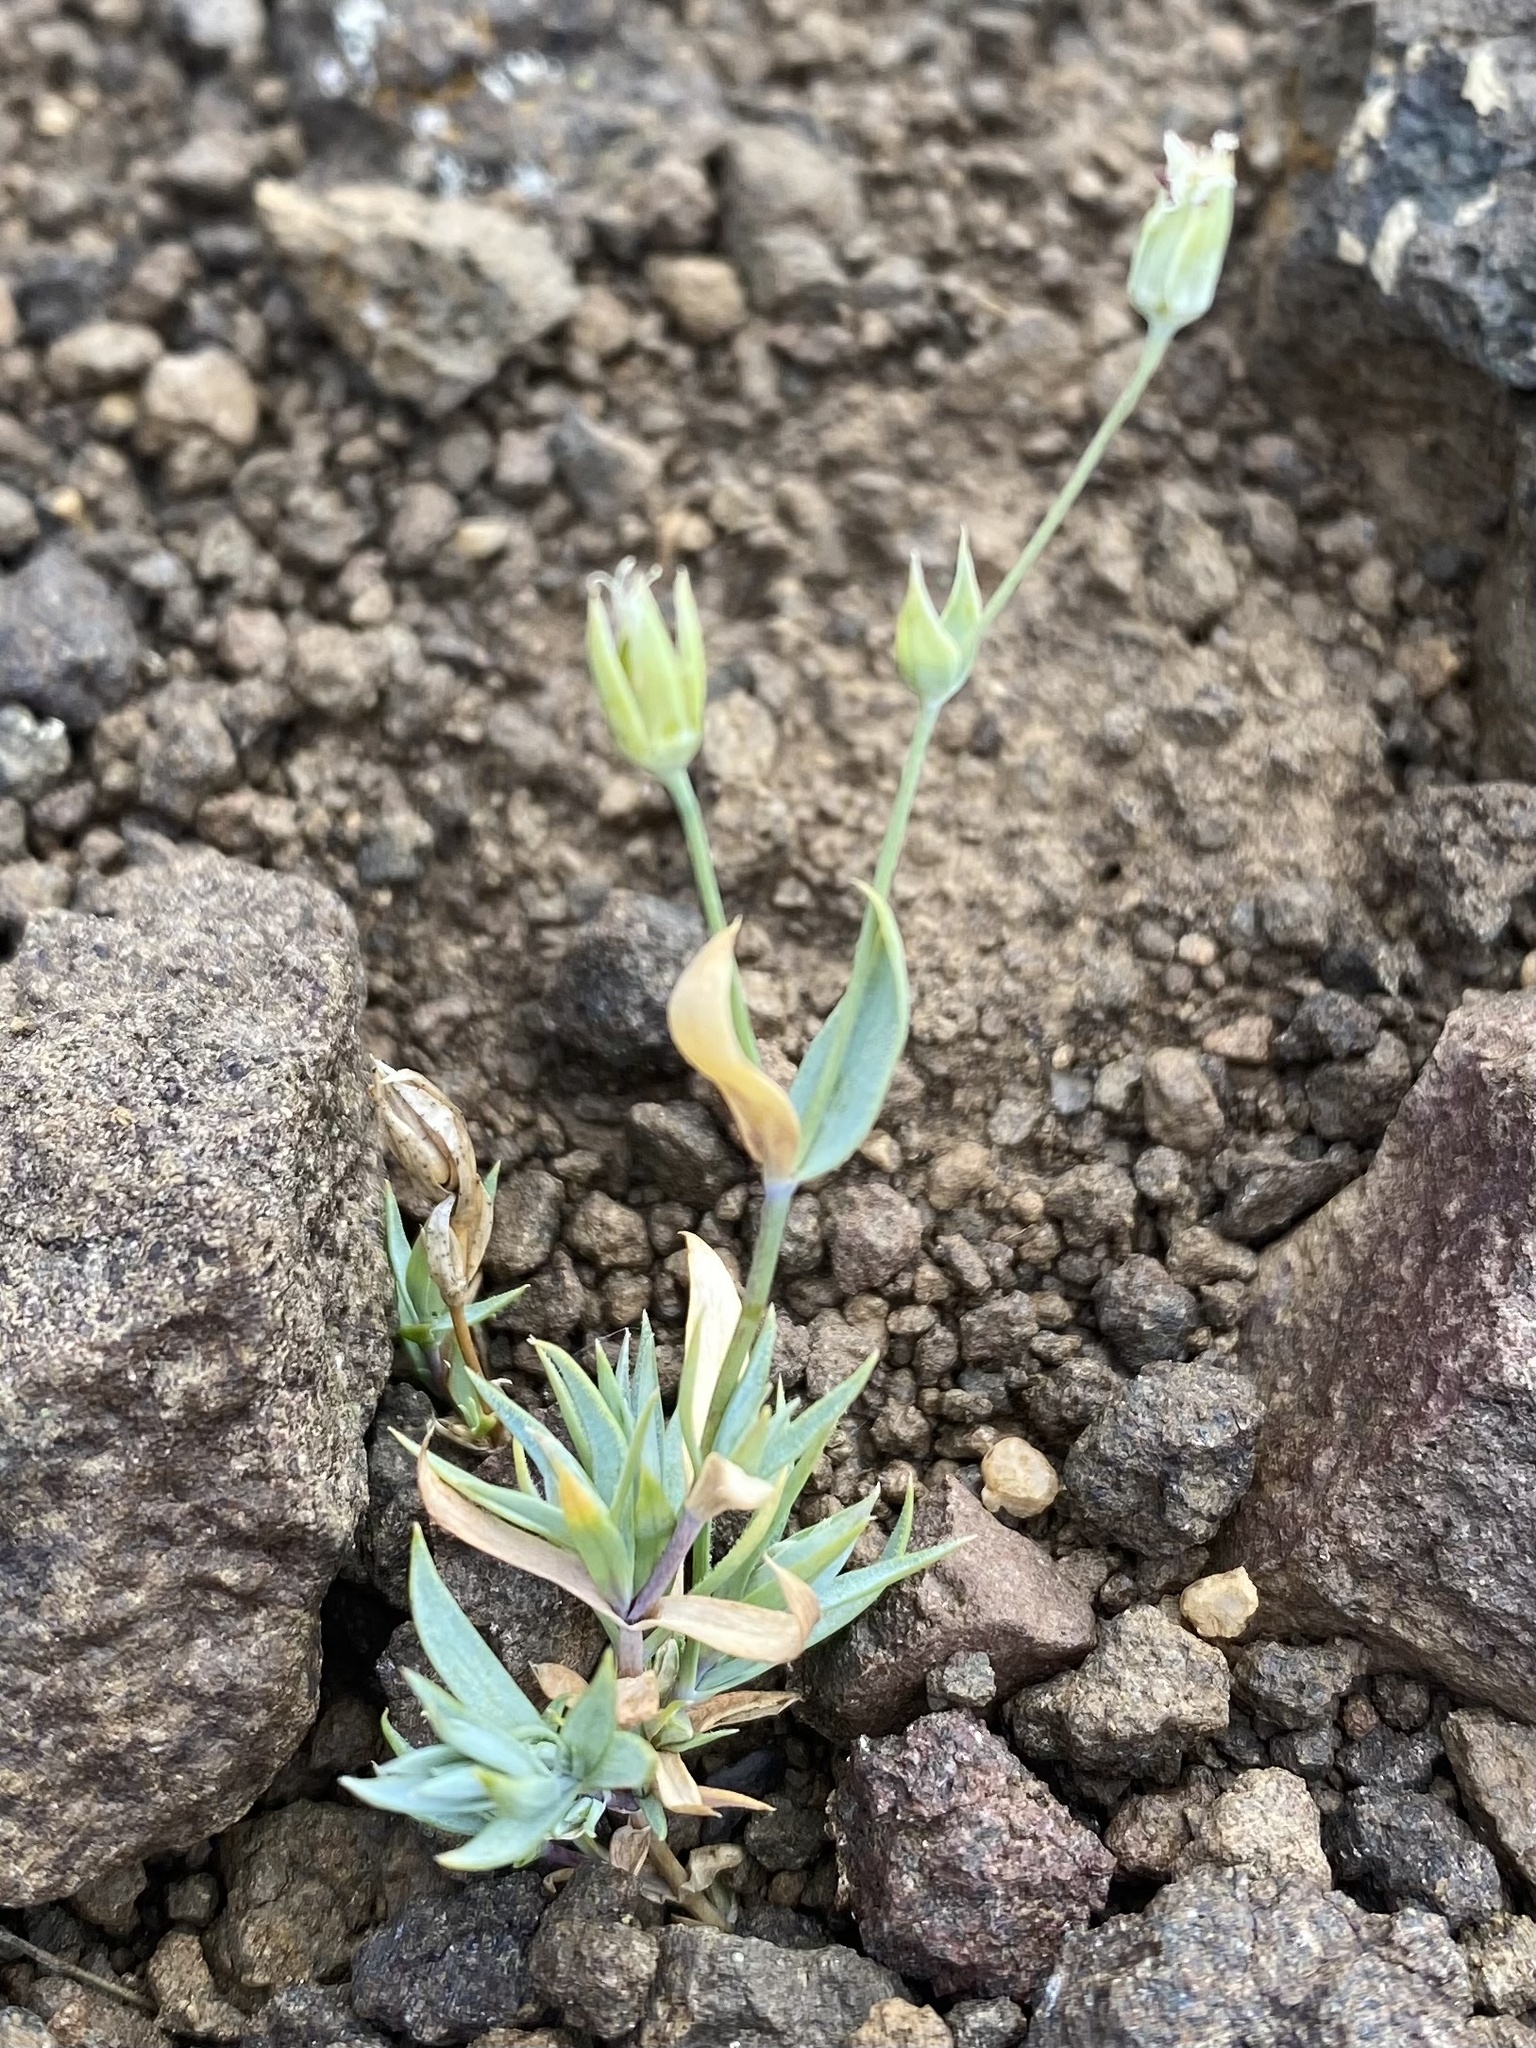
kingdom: Plantae
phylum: Tracheophyta
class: Magnoliopsida
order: Caryophyllales
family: Caryophyllaceae
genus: Stellaria
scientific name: Stellaria fischeriana
